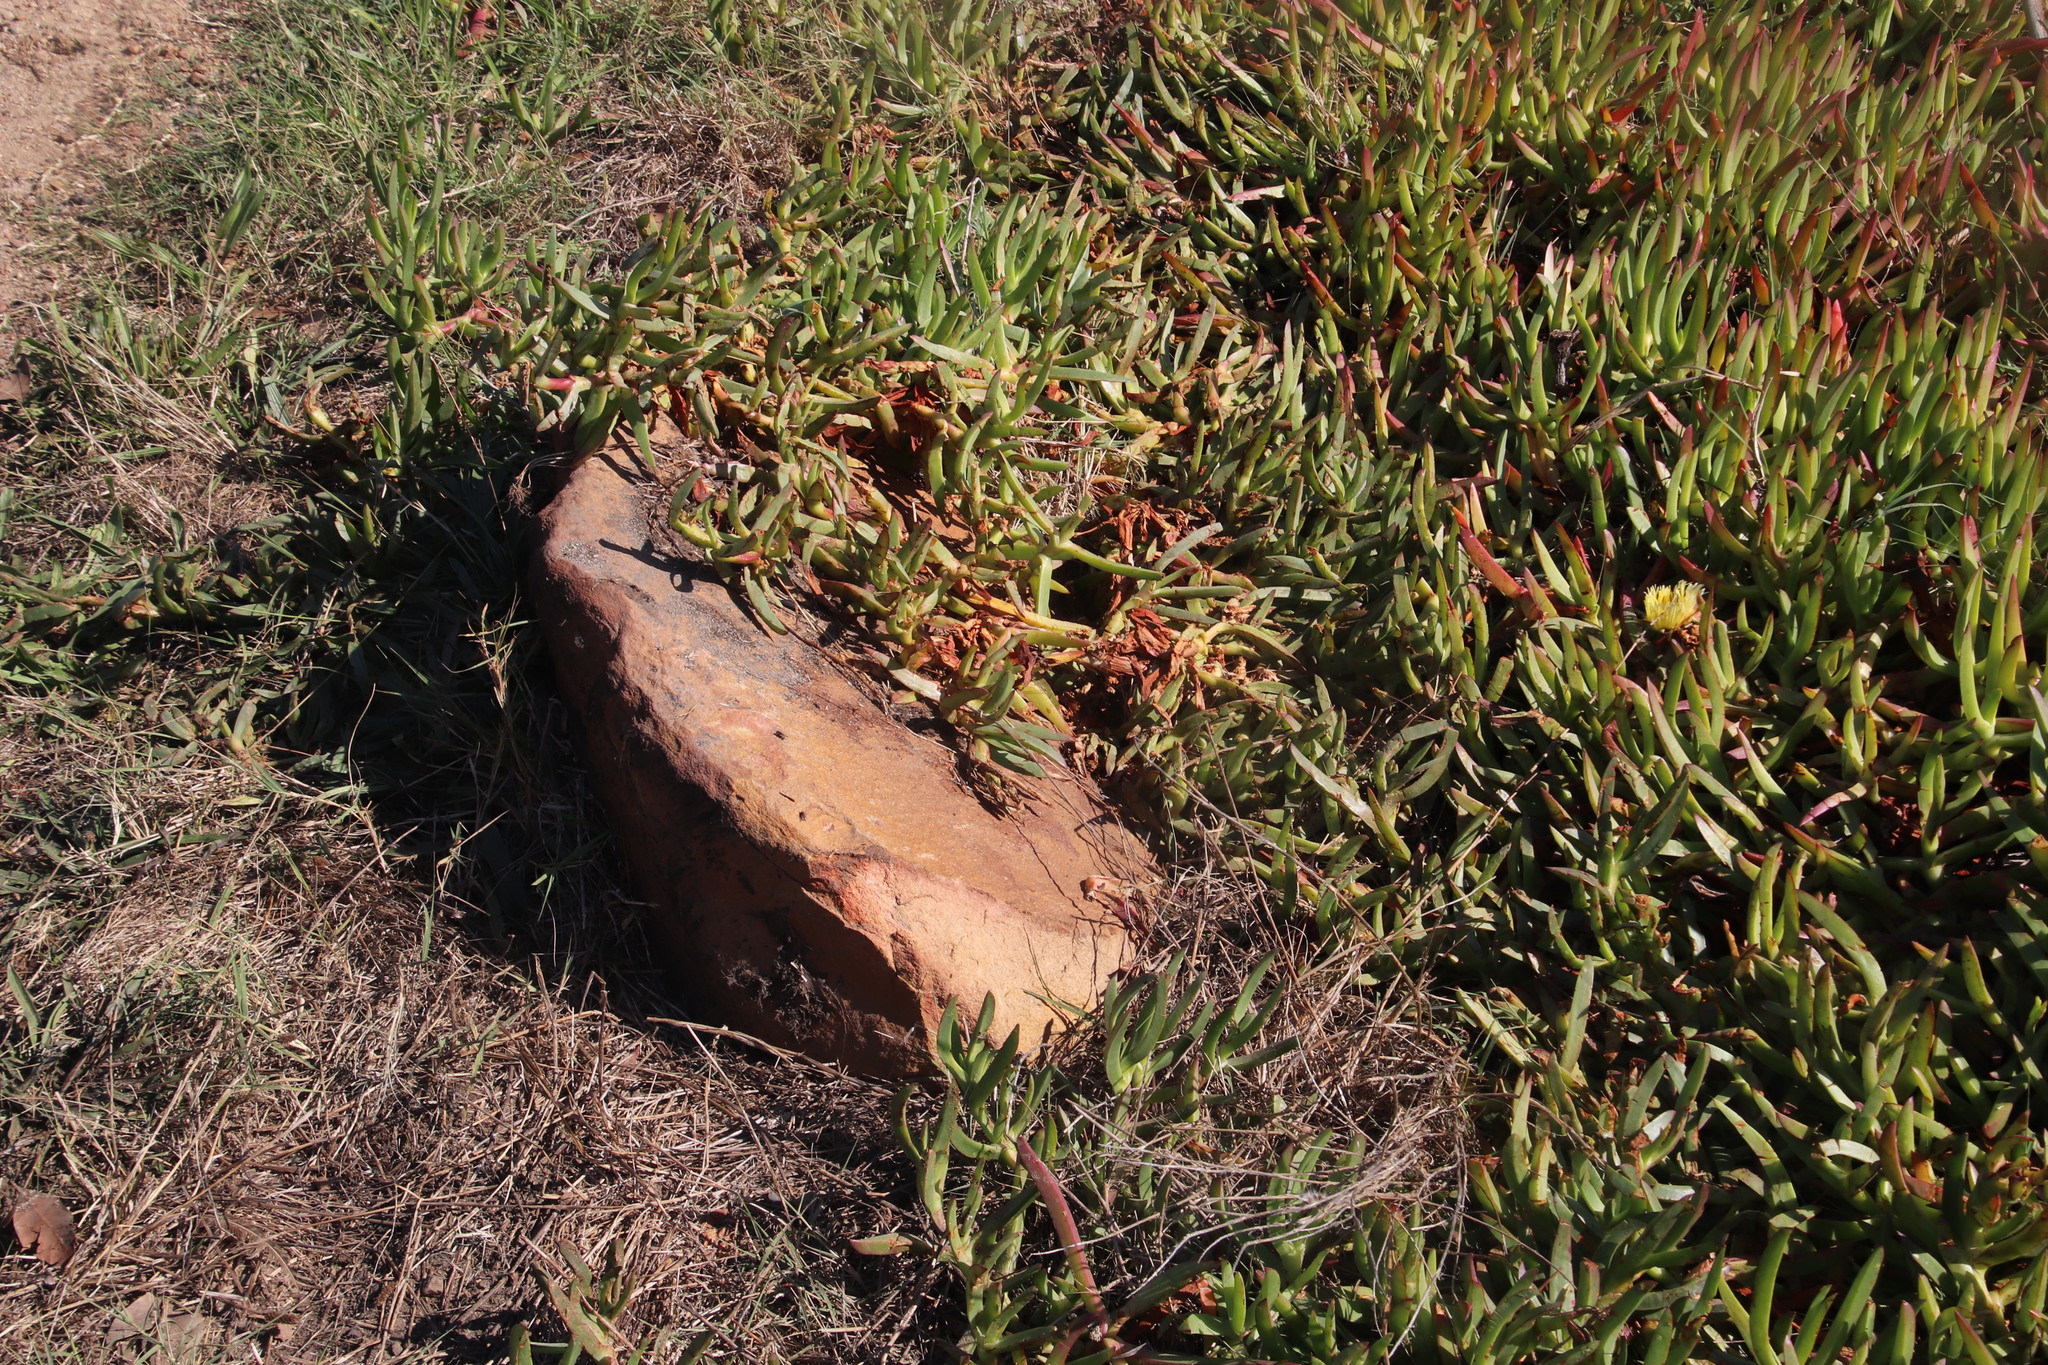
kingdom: Plantae
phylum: Tracheophyta
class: Magnoliopsida
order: Caryophyllales
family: Aizoaceae
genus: Carpobrotus
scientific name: Carpobrotus edulis
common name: Hottentot-fig
